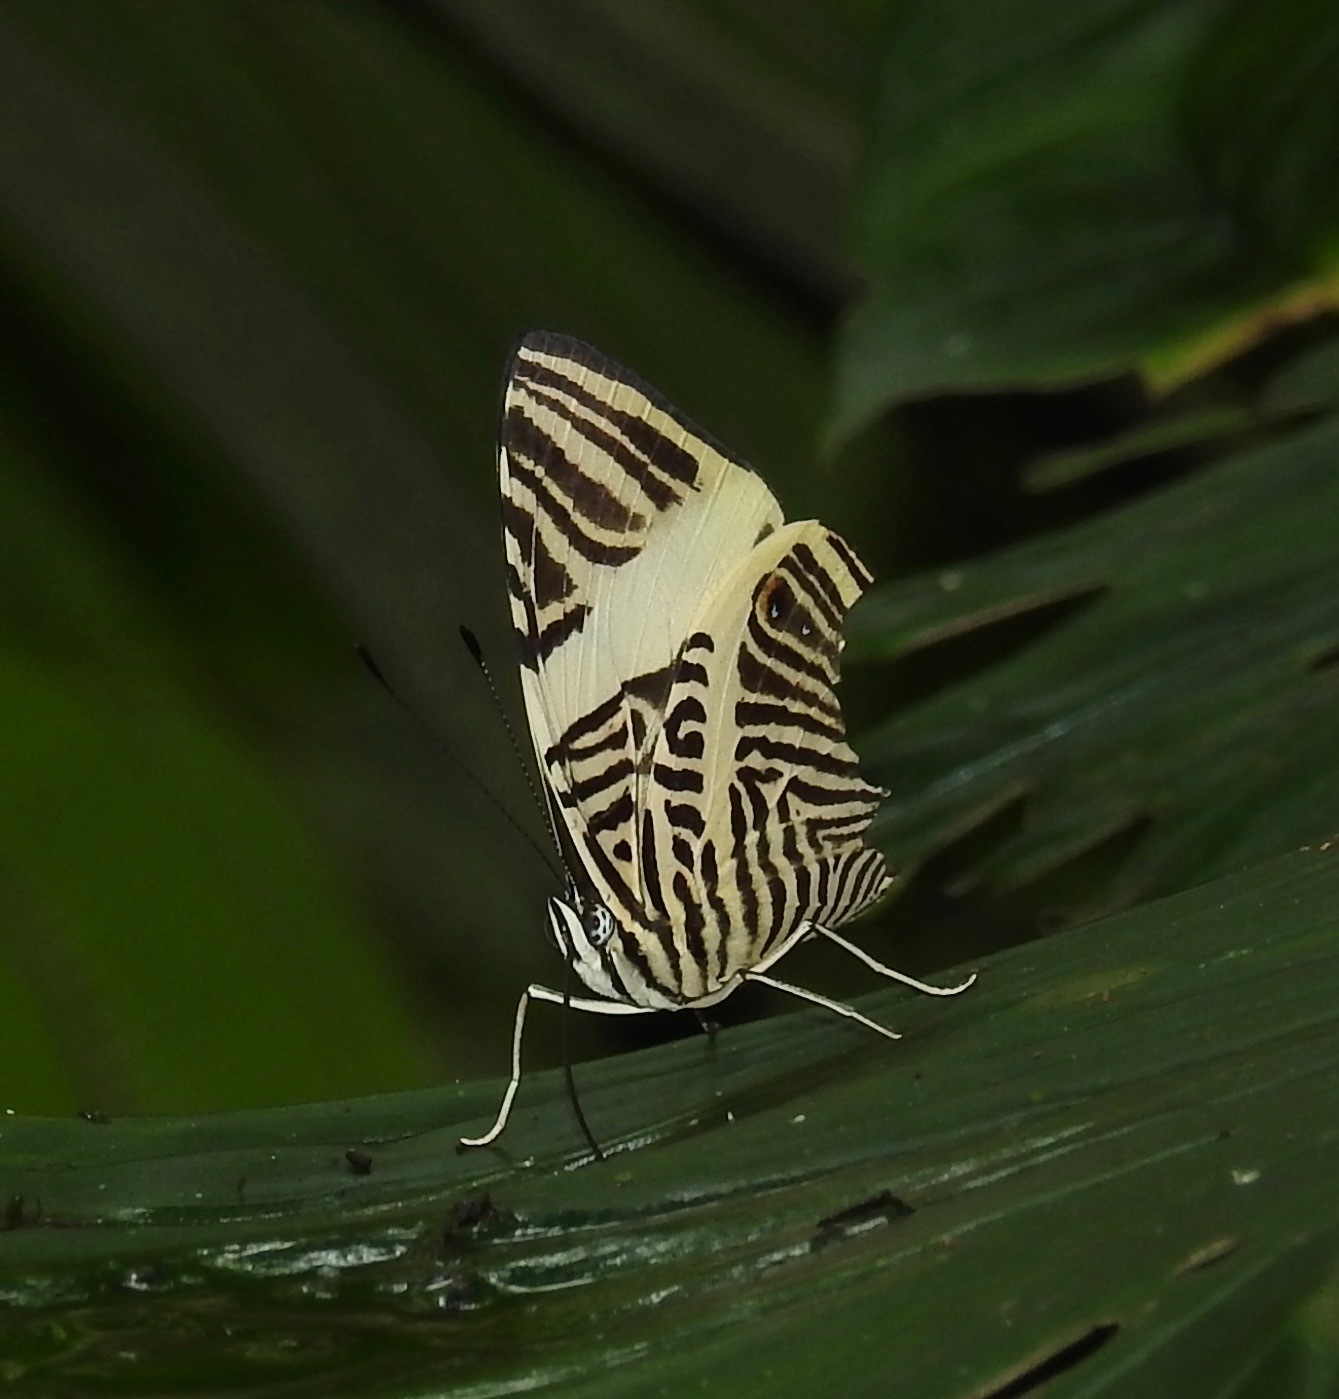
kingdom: Animalia
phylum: Arthropoda
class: Insecta
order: Lepidoptera
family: Nymphalidae
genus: Colobura
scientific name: Colobura dirce
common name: Dirce beauty
